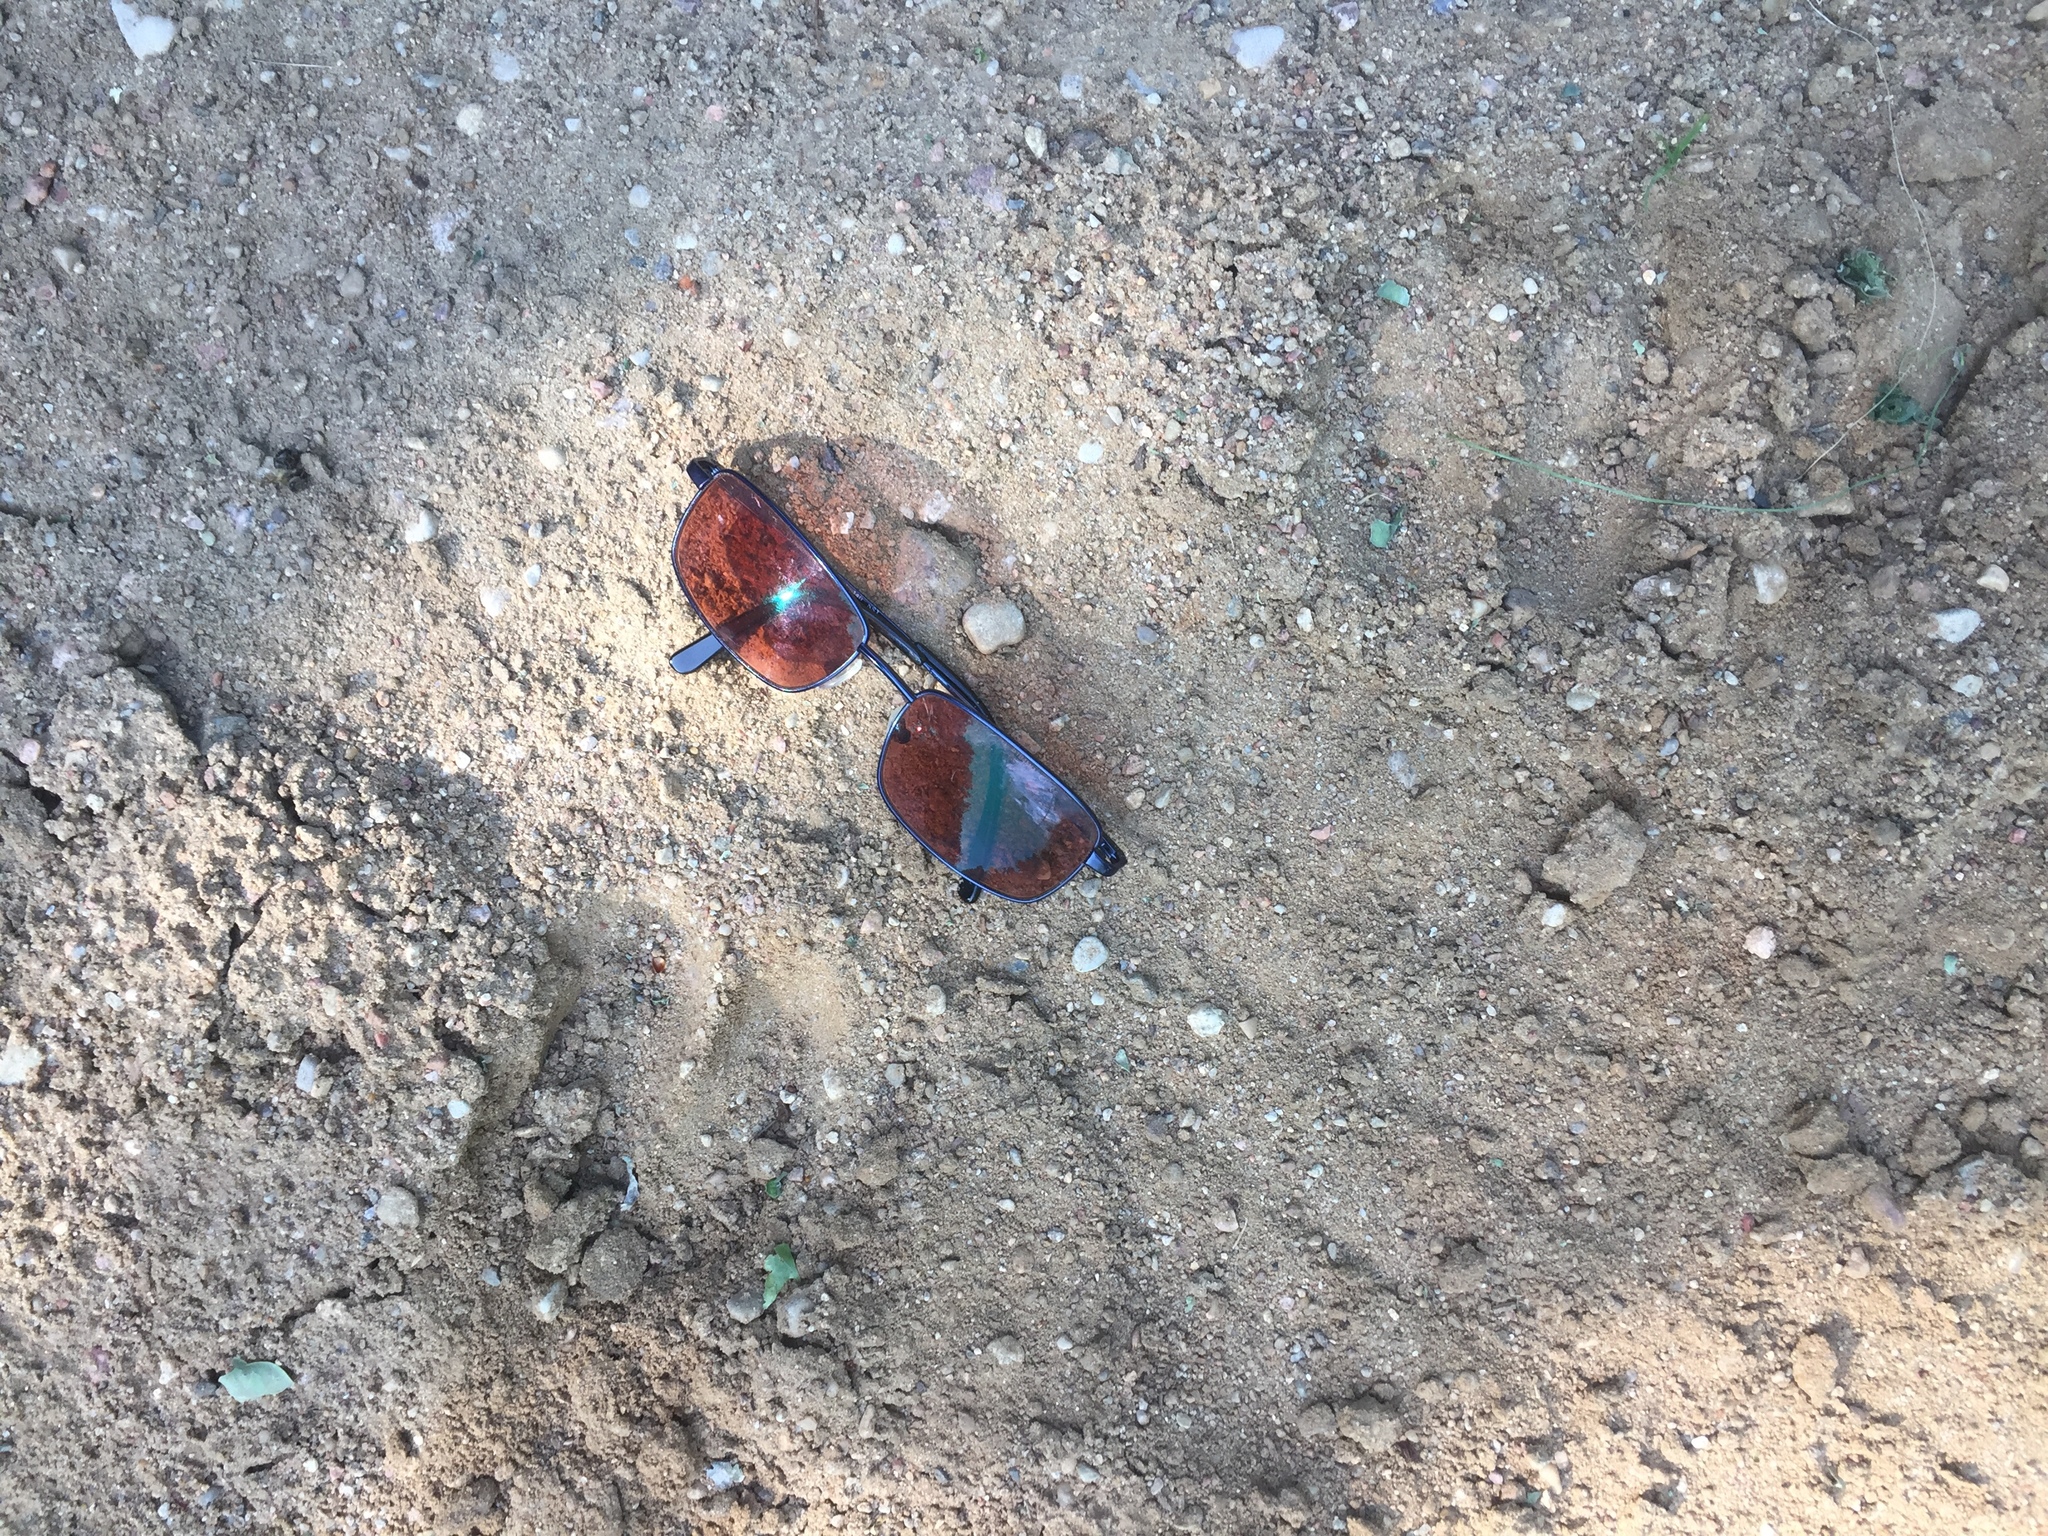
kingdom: Animalia
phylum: Chordata
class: Mammalia
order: Artiodactyla
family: Bovidae
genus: Bison
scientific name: Bison bonasus
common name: European bison
